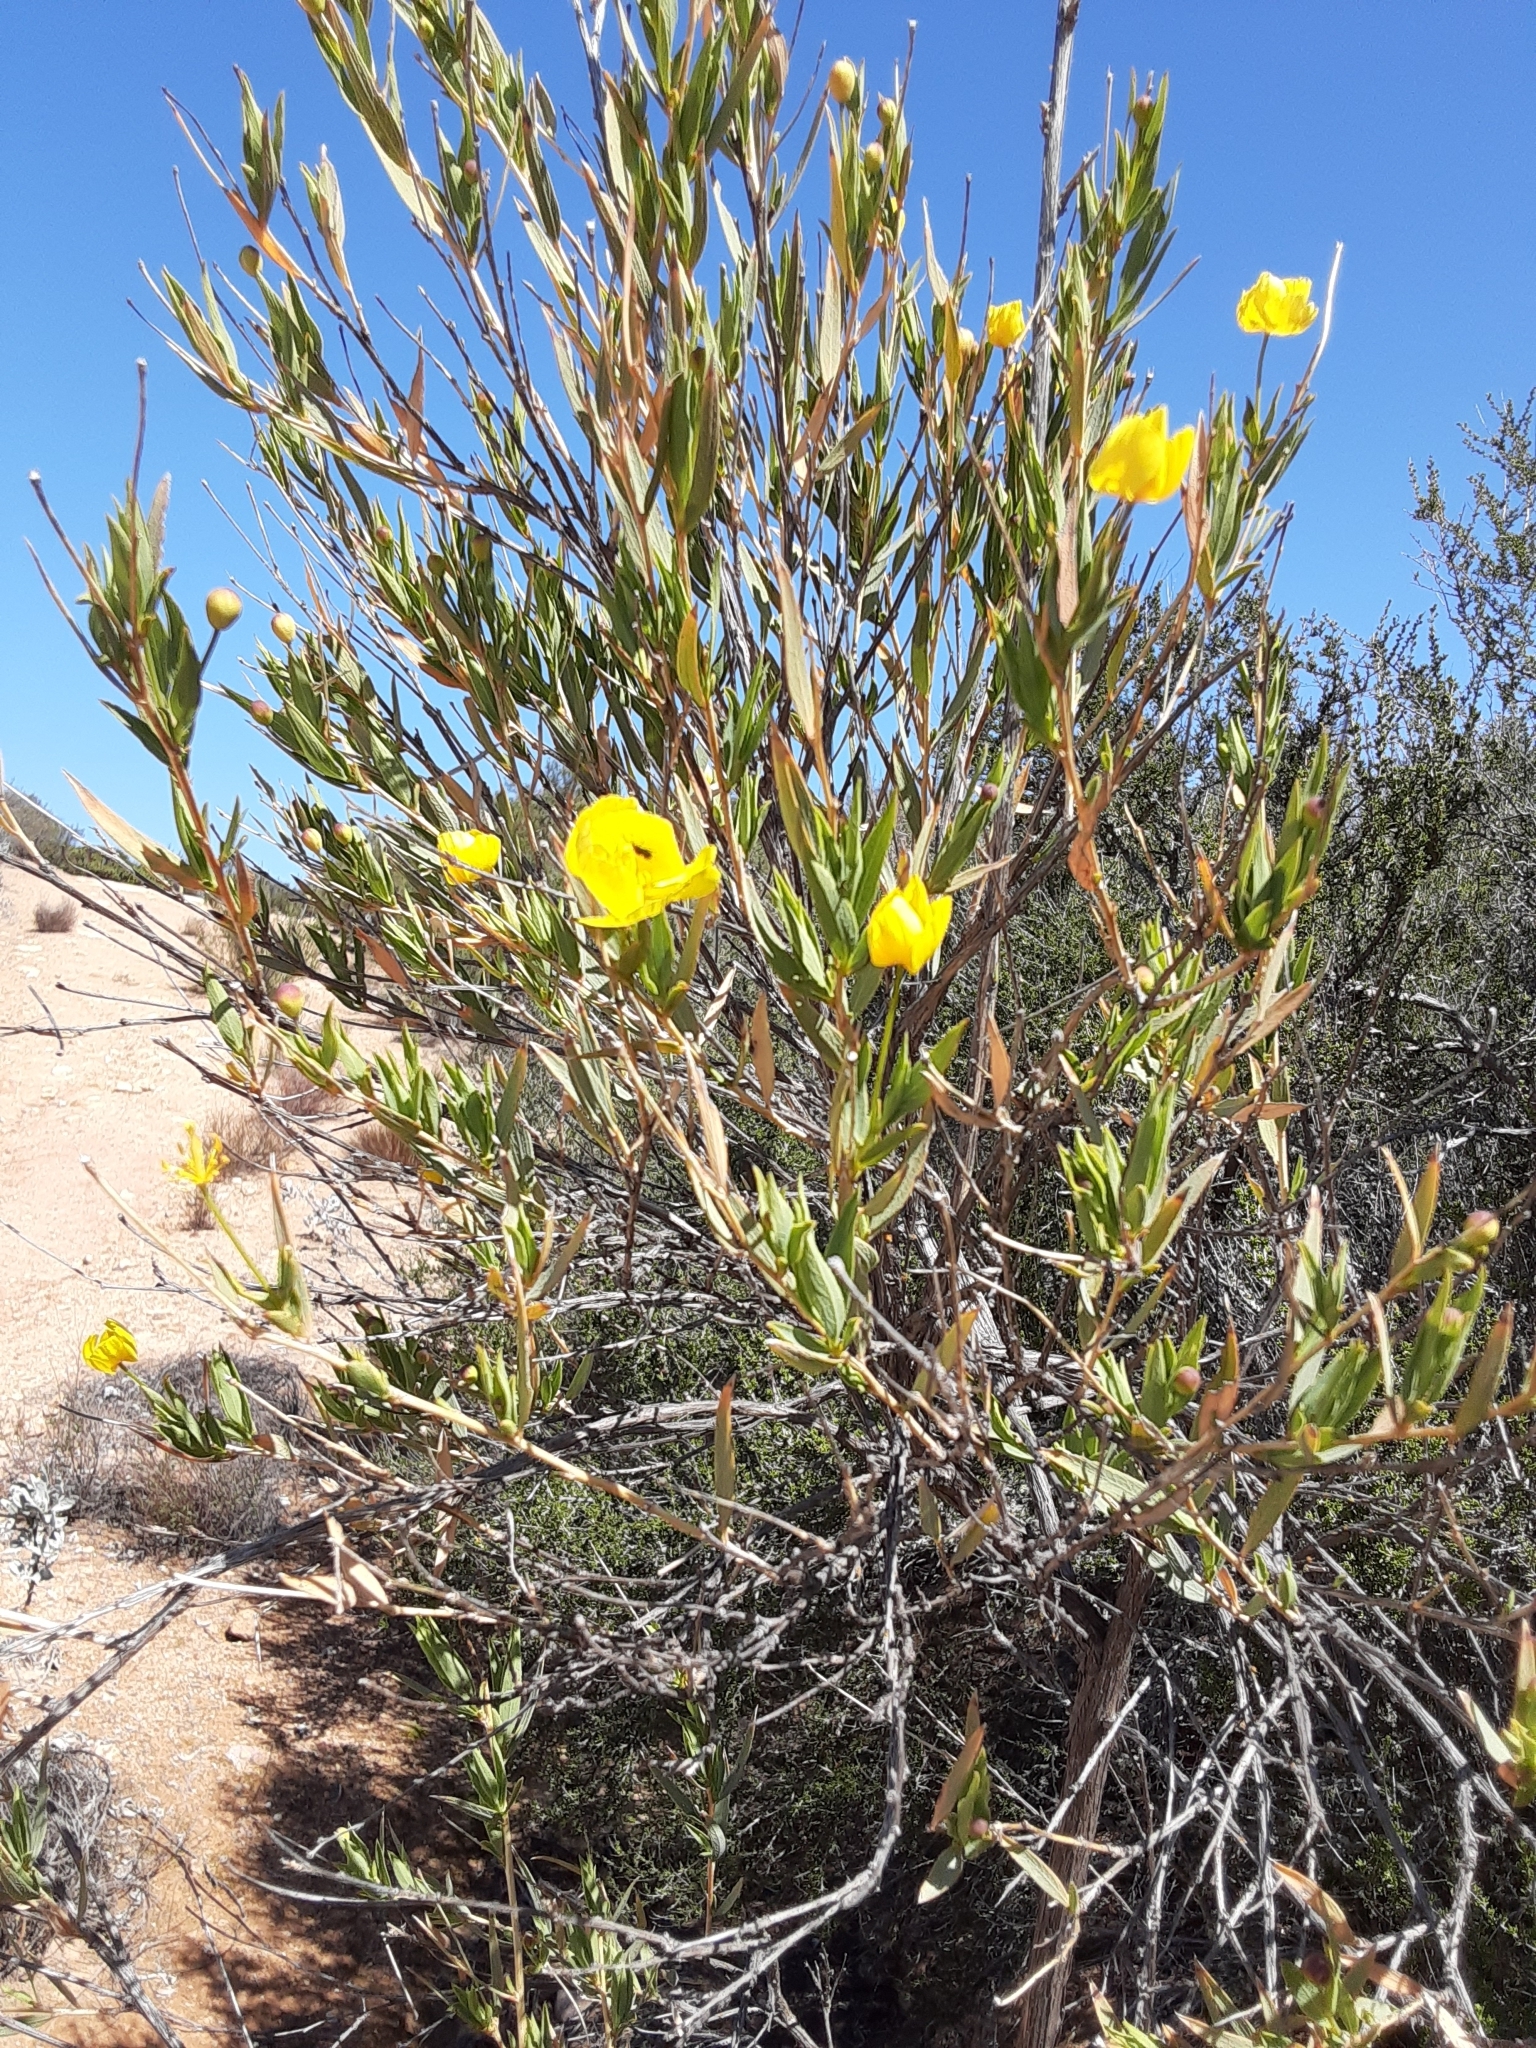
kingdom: Plantae
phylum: Tracheophyta
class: Magnoliopsida
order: Ranunculales
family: Papaveraceae
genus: Dendromecon
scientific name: Dendromecon rigida
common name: Tree poppy
